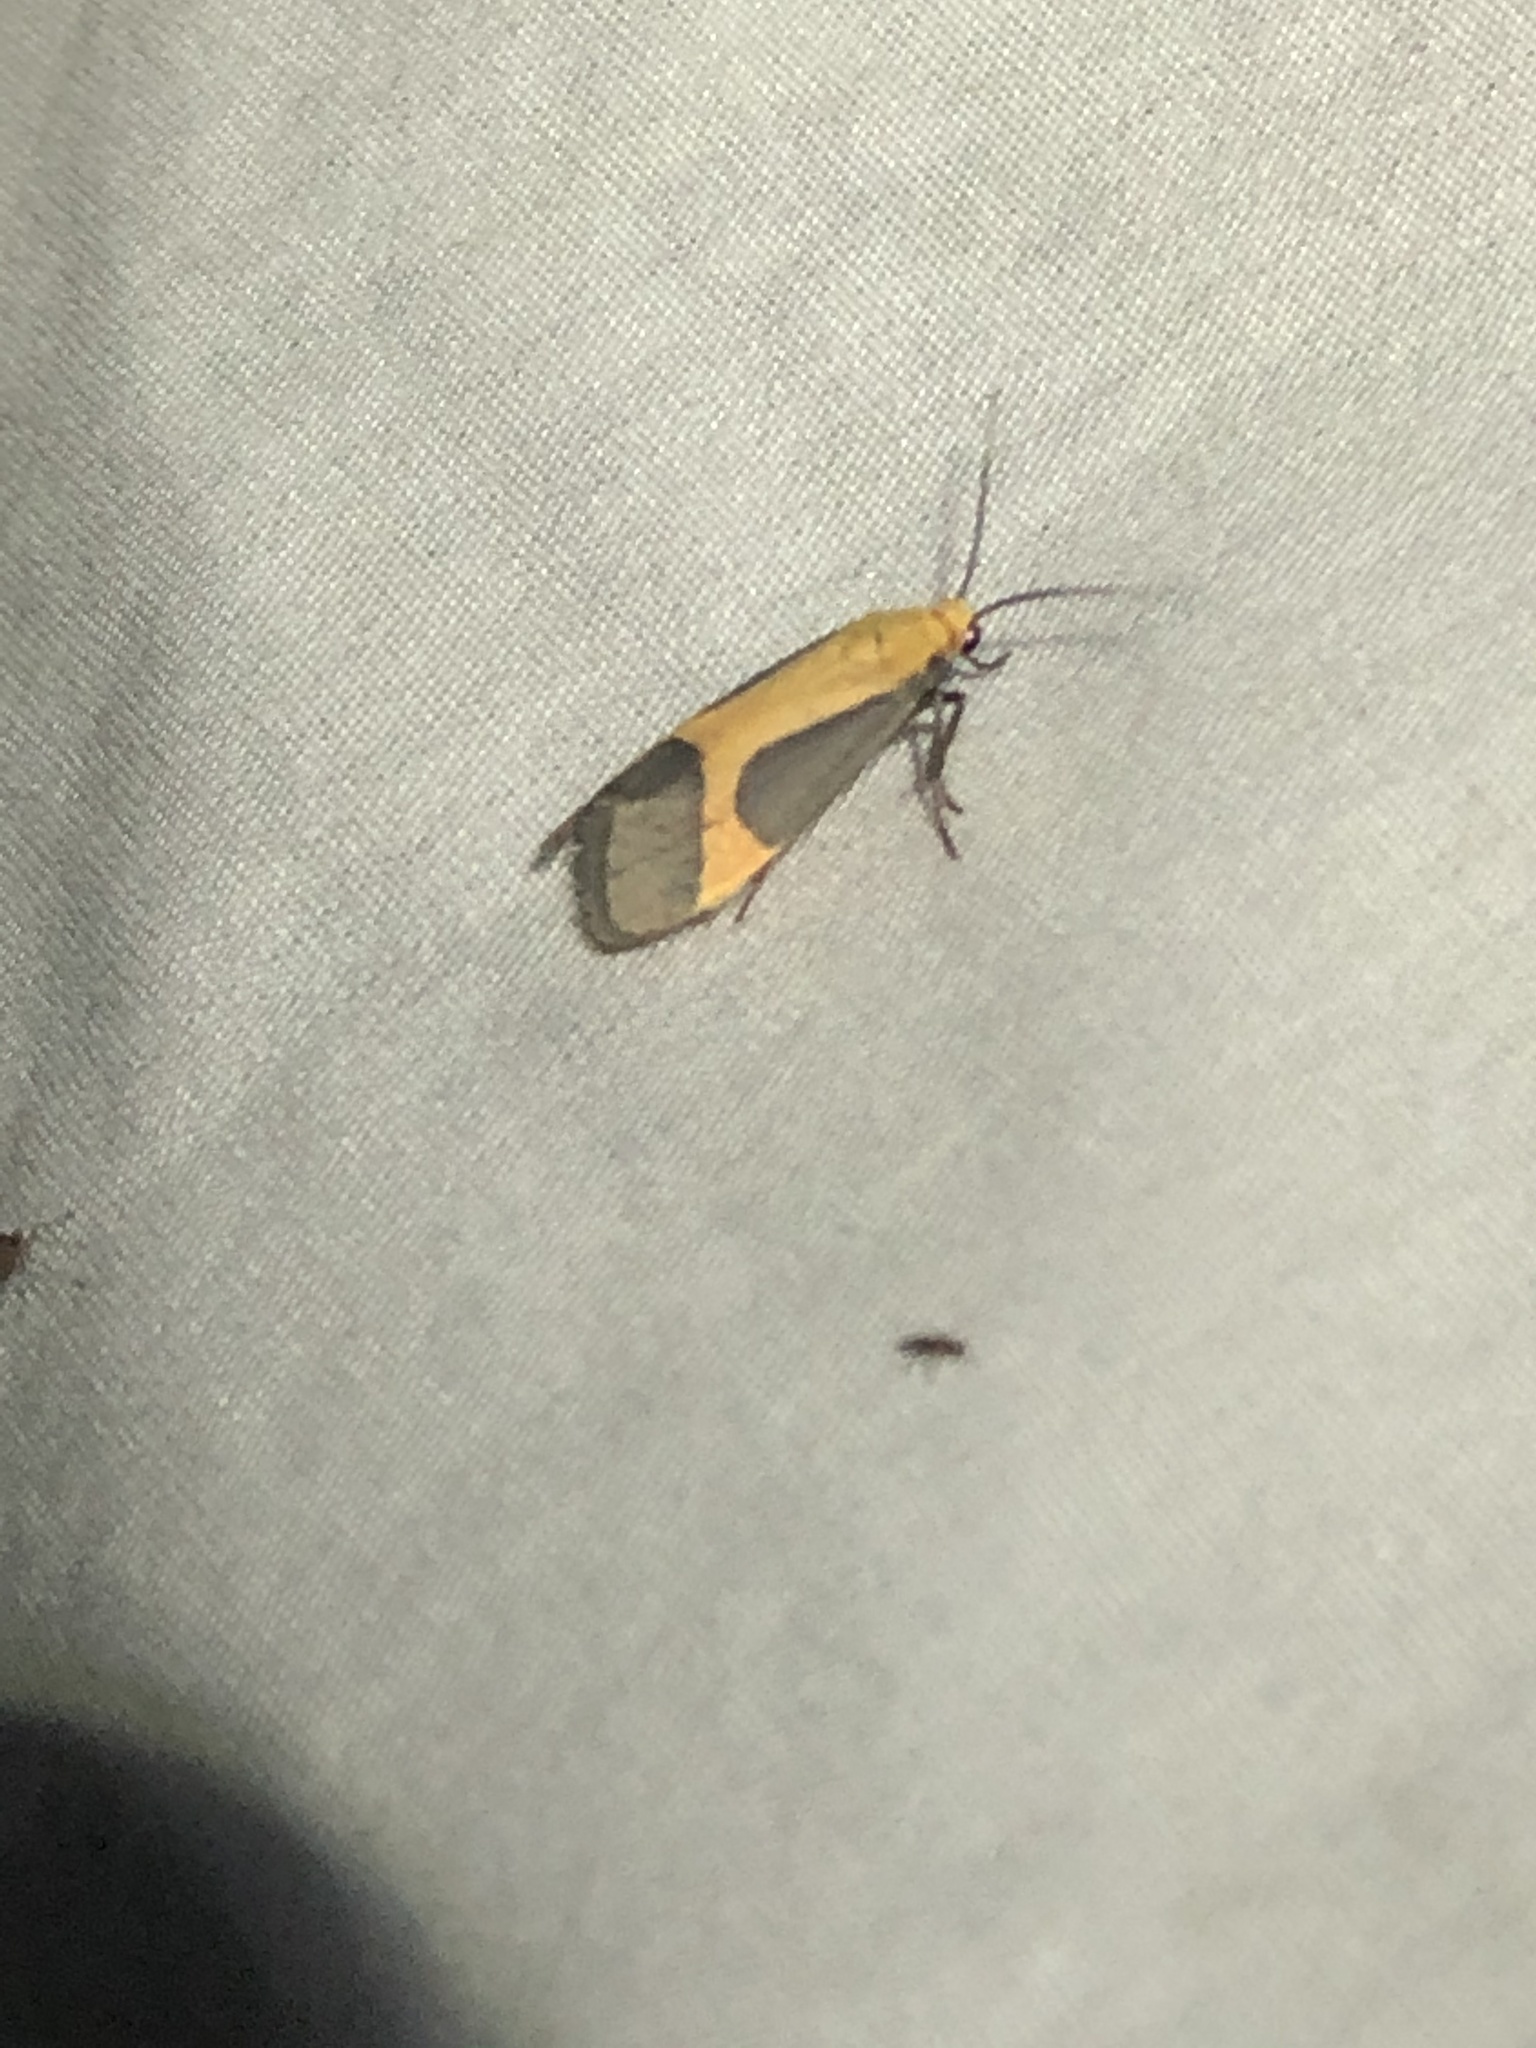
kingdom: Animalia
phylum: Arthropoda
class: Insecta
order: Lepidoptera
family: Erebidae
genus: Cisthene
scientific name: Cisthene angelus
